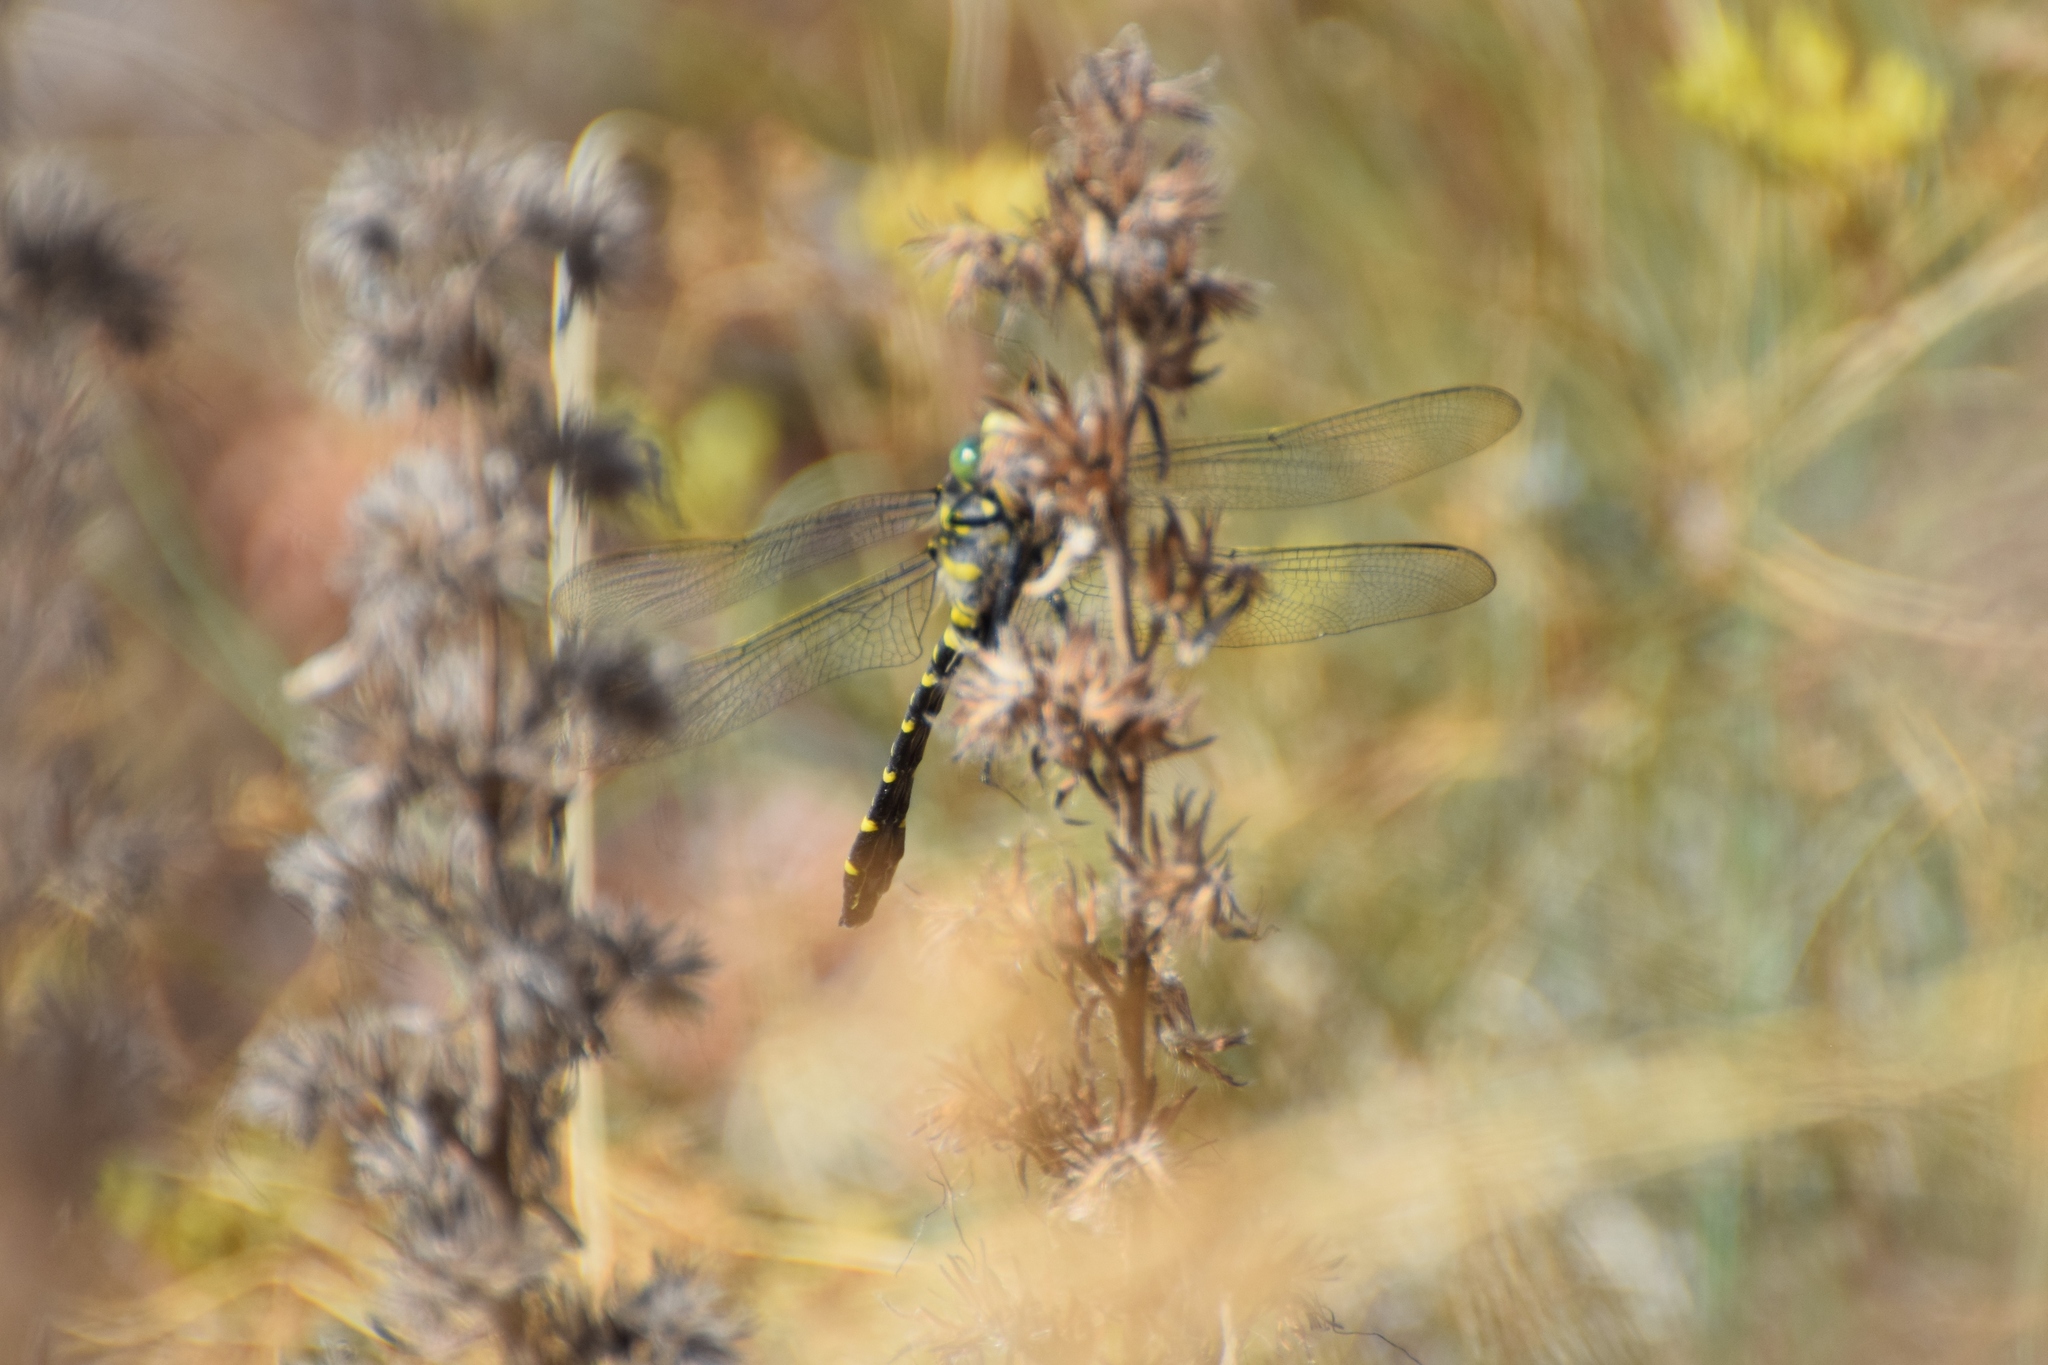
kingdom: Animalia
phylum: Arthropoda
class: Insecta
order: Odonata
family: Cordulegastridae
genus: Cordulegaster
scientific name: Cordulegaster boltonii
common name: Golden-ringed dragonfly
